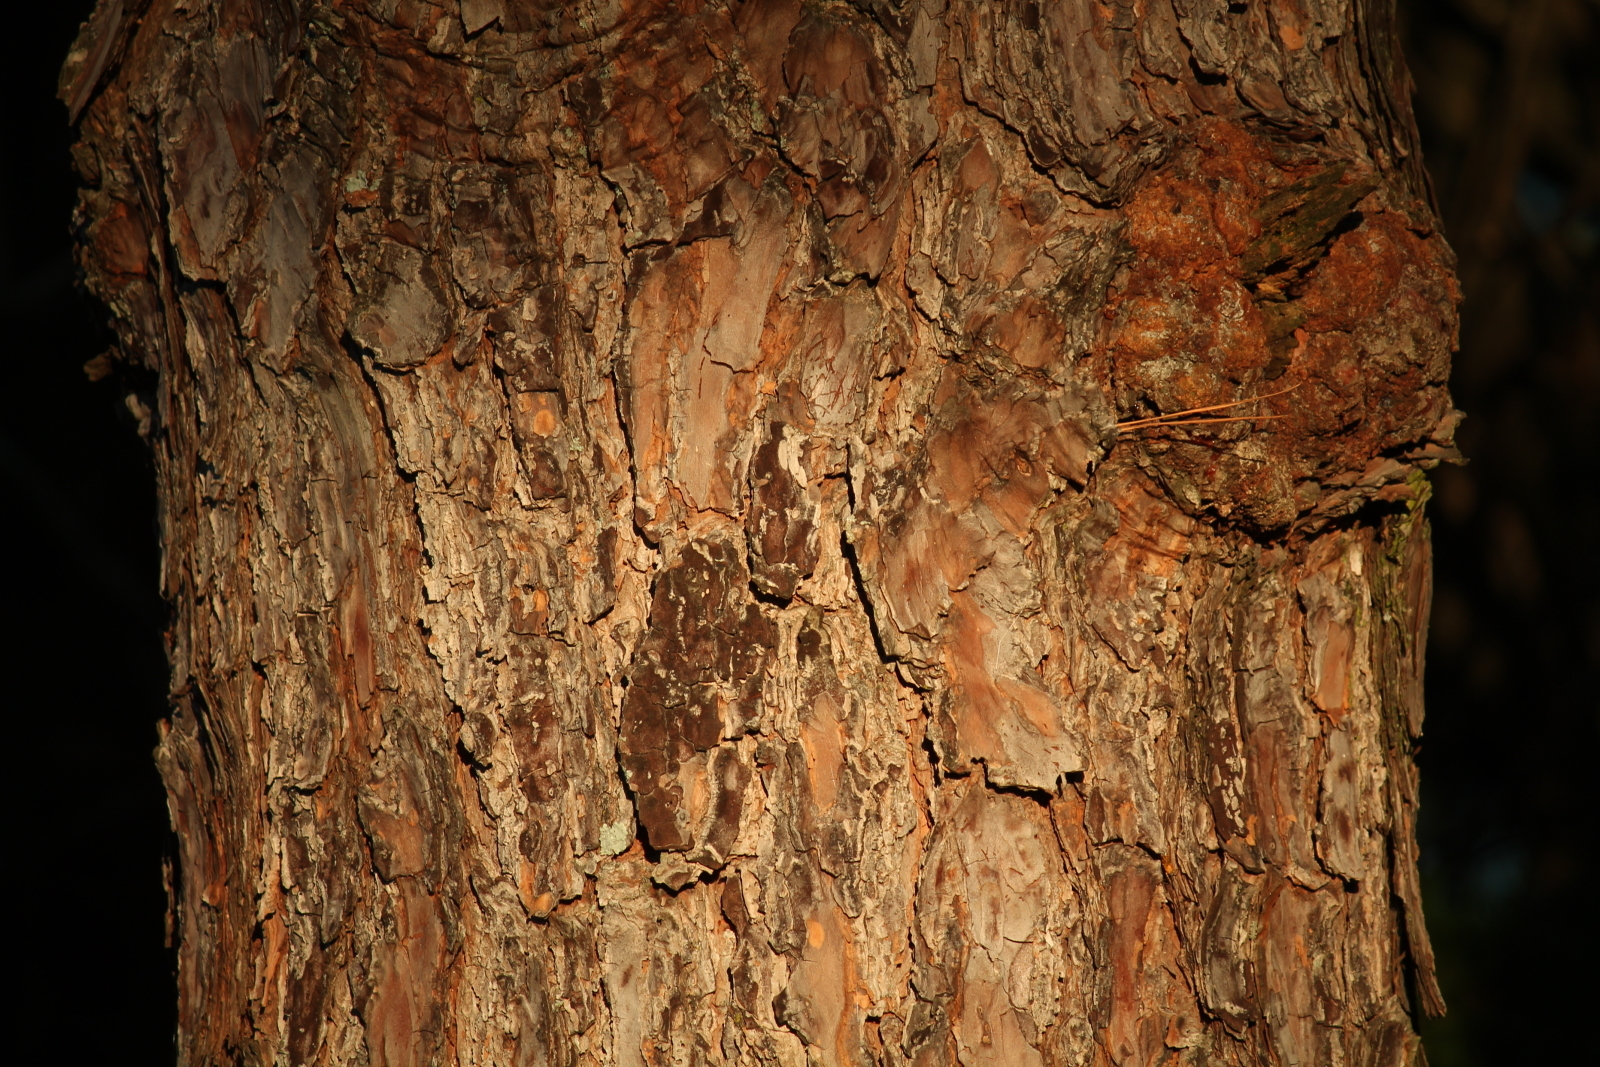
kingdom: Plantae
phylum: Tracheophyta
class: Pinopsida
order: Pinales
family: Pinaceae
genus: Pinus
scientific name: Pinus echinata
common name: Shortleaf pine
